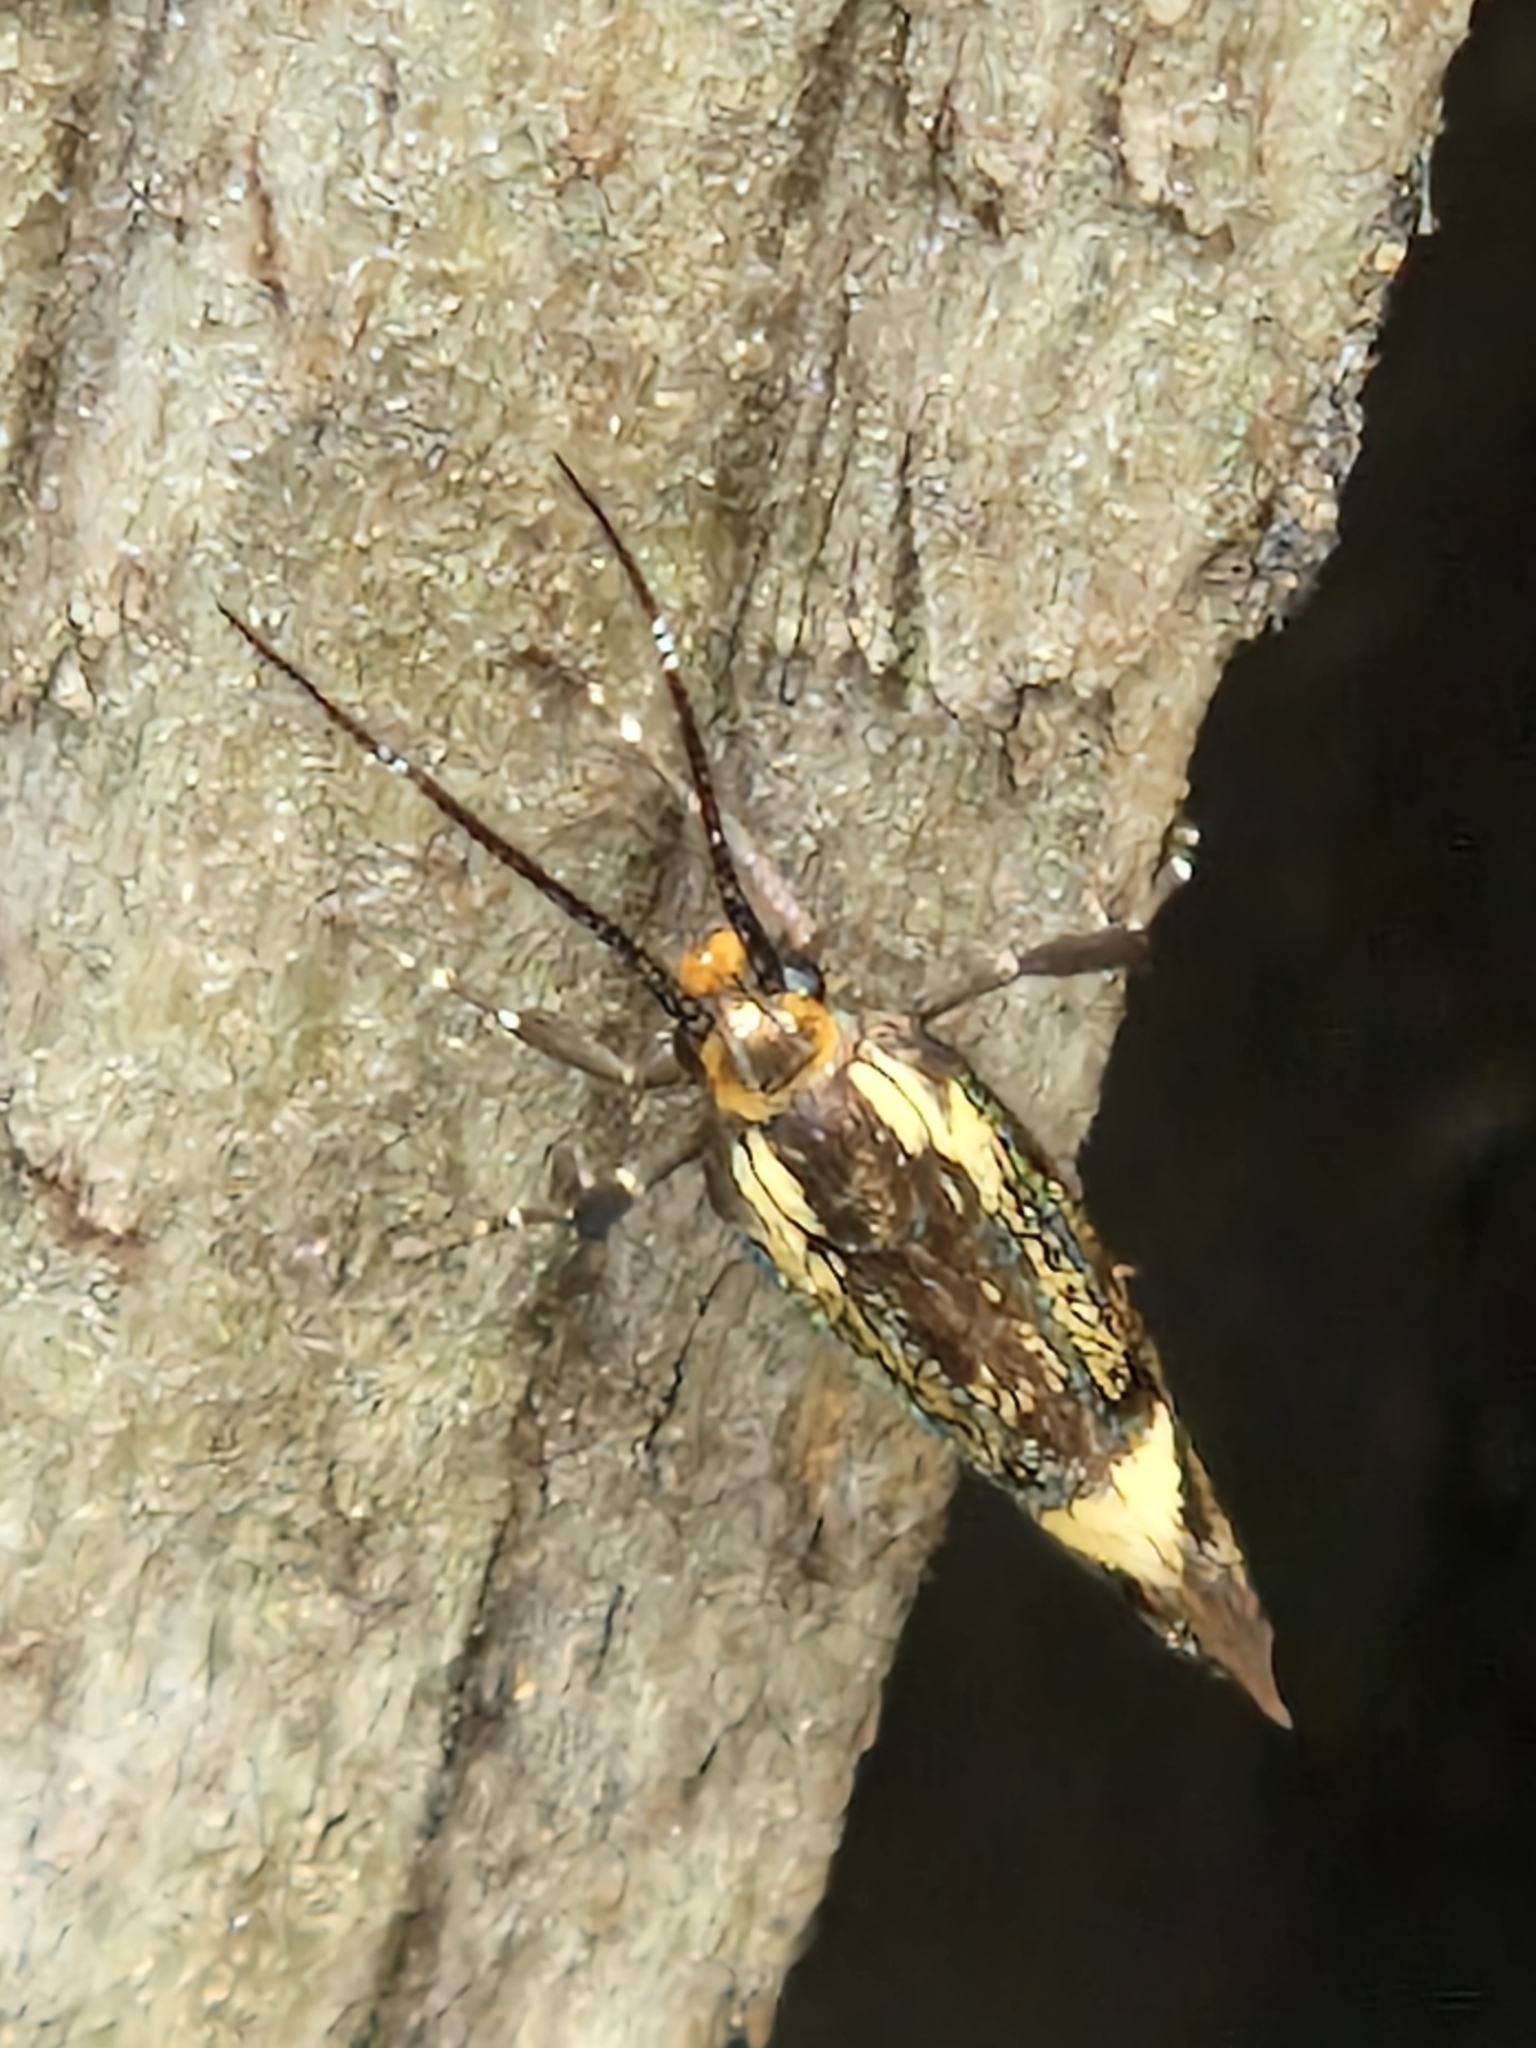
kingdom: Animalia
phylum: Arthropoda
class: Insecta
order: Lepidoptera
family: Oecophoridae
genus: Dafa
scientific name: Dafa Esperia sulphurella
